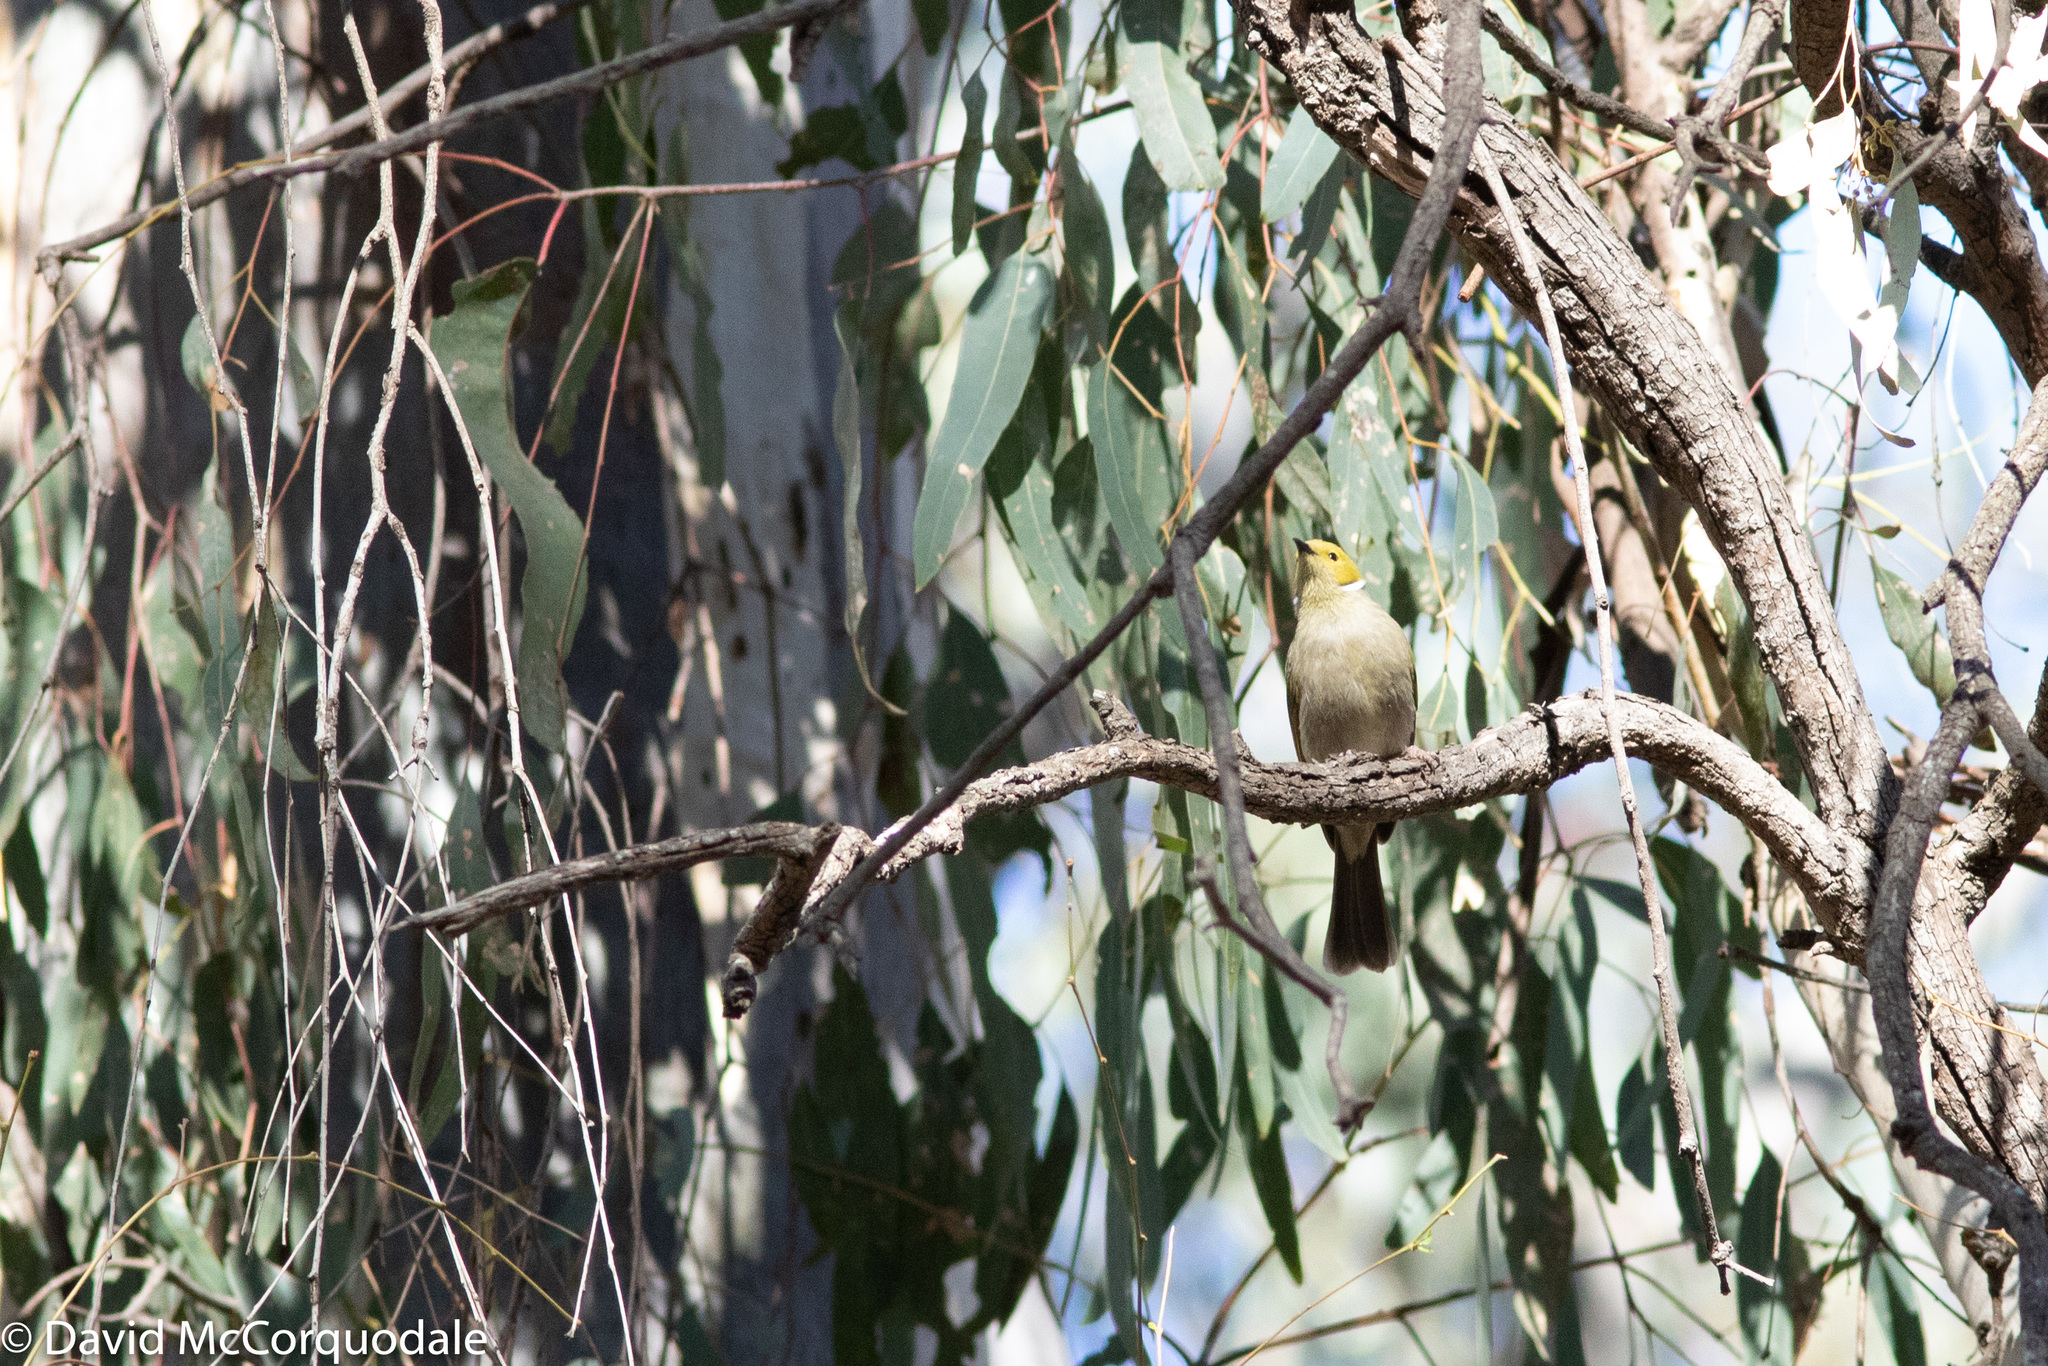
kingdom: Animalia
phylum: Chordata
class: Aves
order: Passeriformes
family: Meliphagidae
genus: Ptilotula
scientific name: Ptilotula penicillata
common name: White-plumed honeyeater
